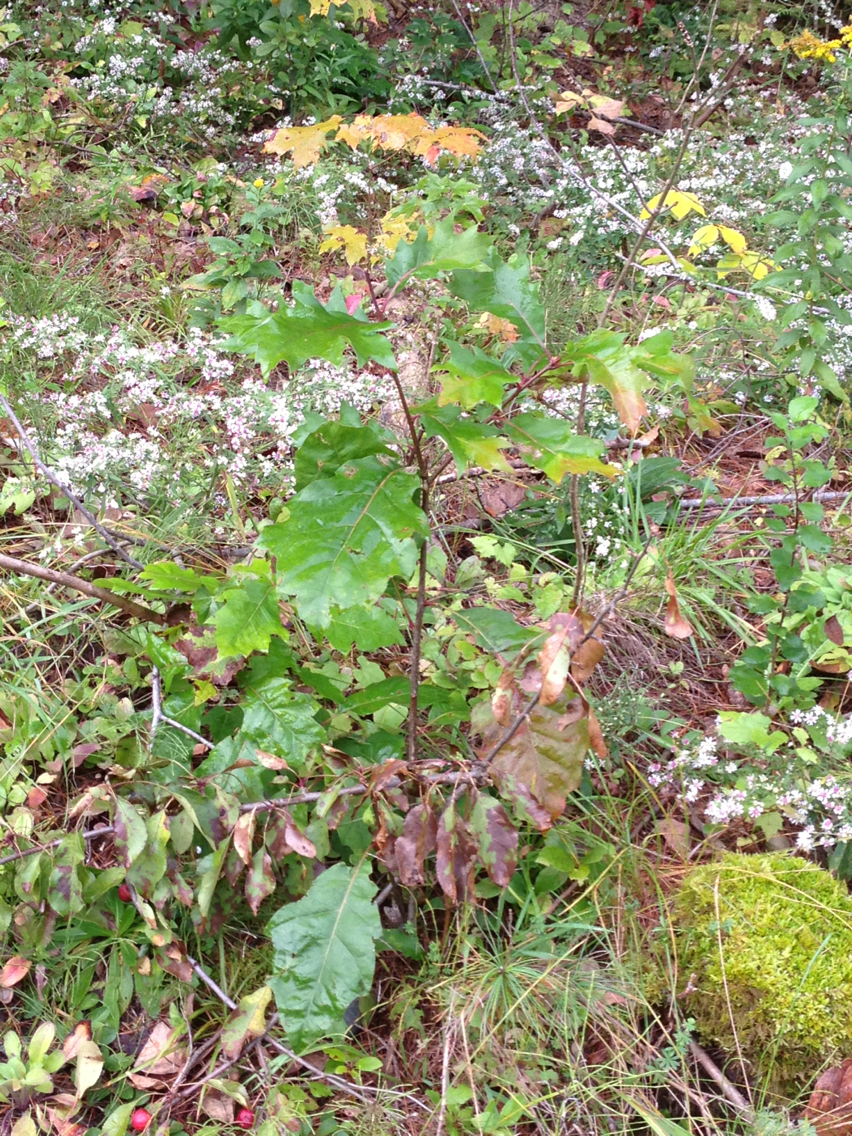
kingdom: Plantae
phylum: Tracheophyta
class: Magnoliopsida
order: Fagales
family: Fagaceae
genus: Quercus
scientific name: Quercus rubra
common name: Red oak
